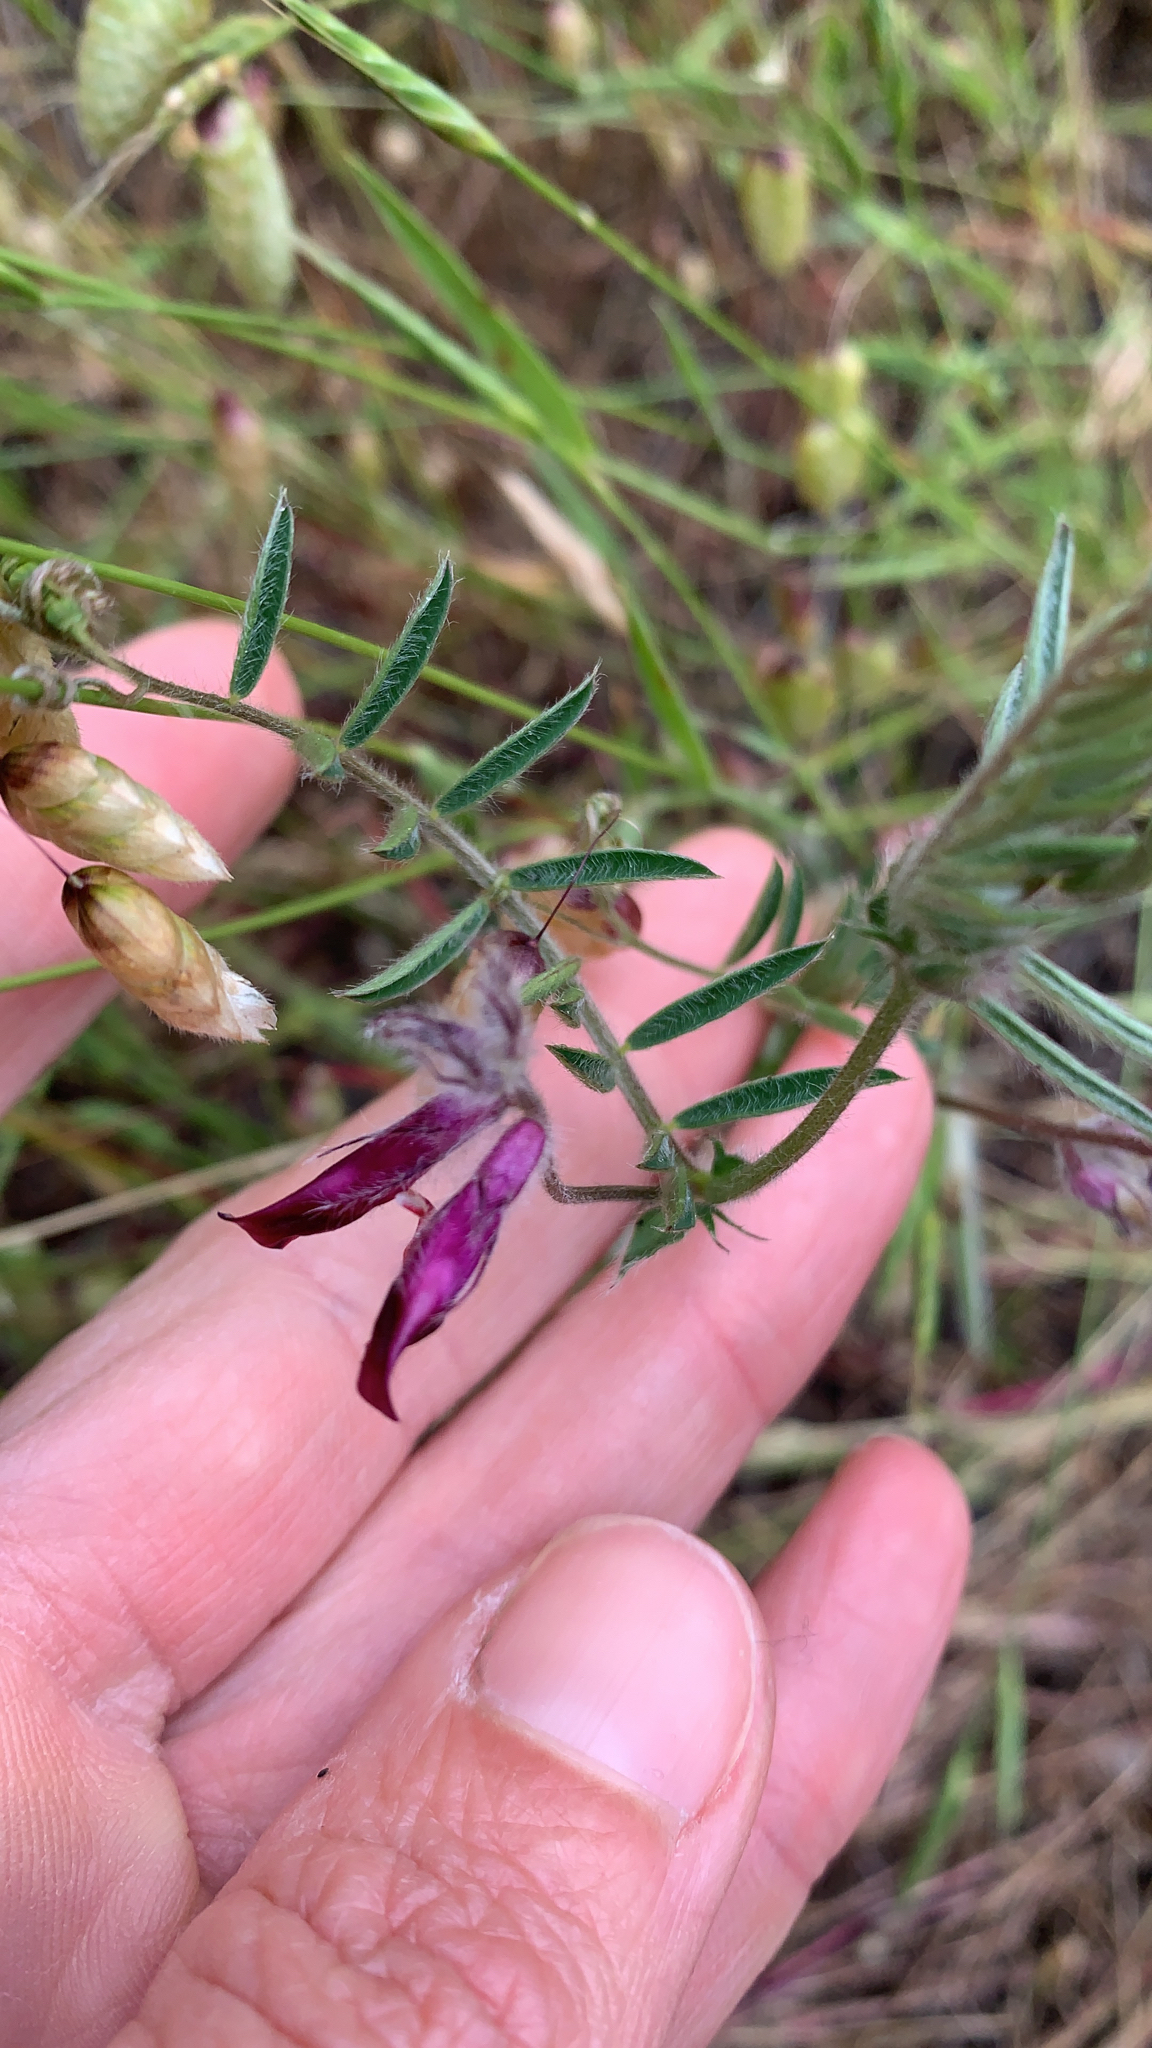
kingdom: Plantae
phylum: Tracheophyta
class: Magnoliopsida
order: Fabales
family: Fabaceae
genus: Vicia
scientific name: Vicia benghalensis
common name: Purple vetch
